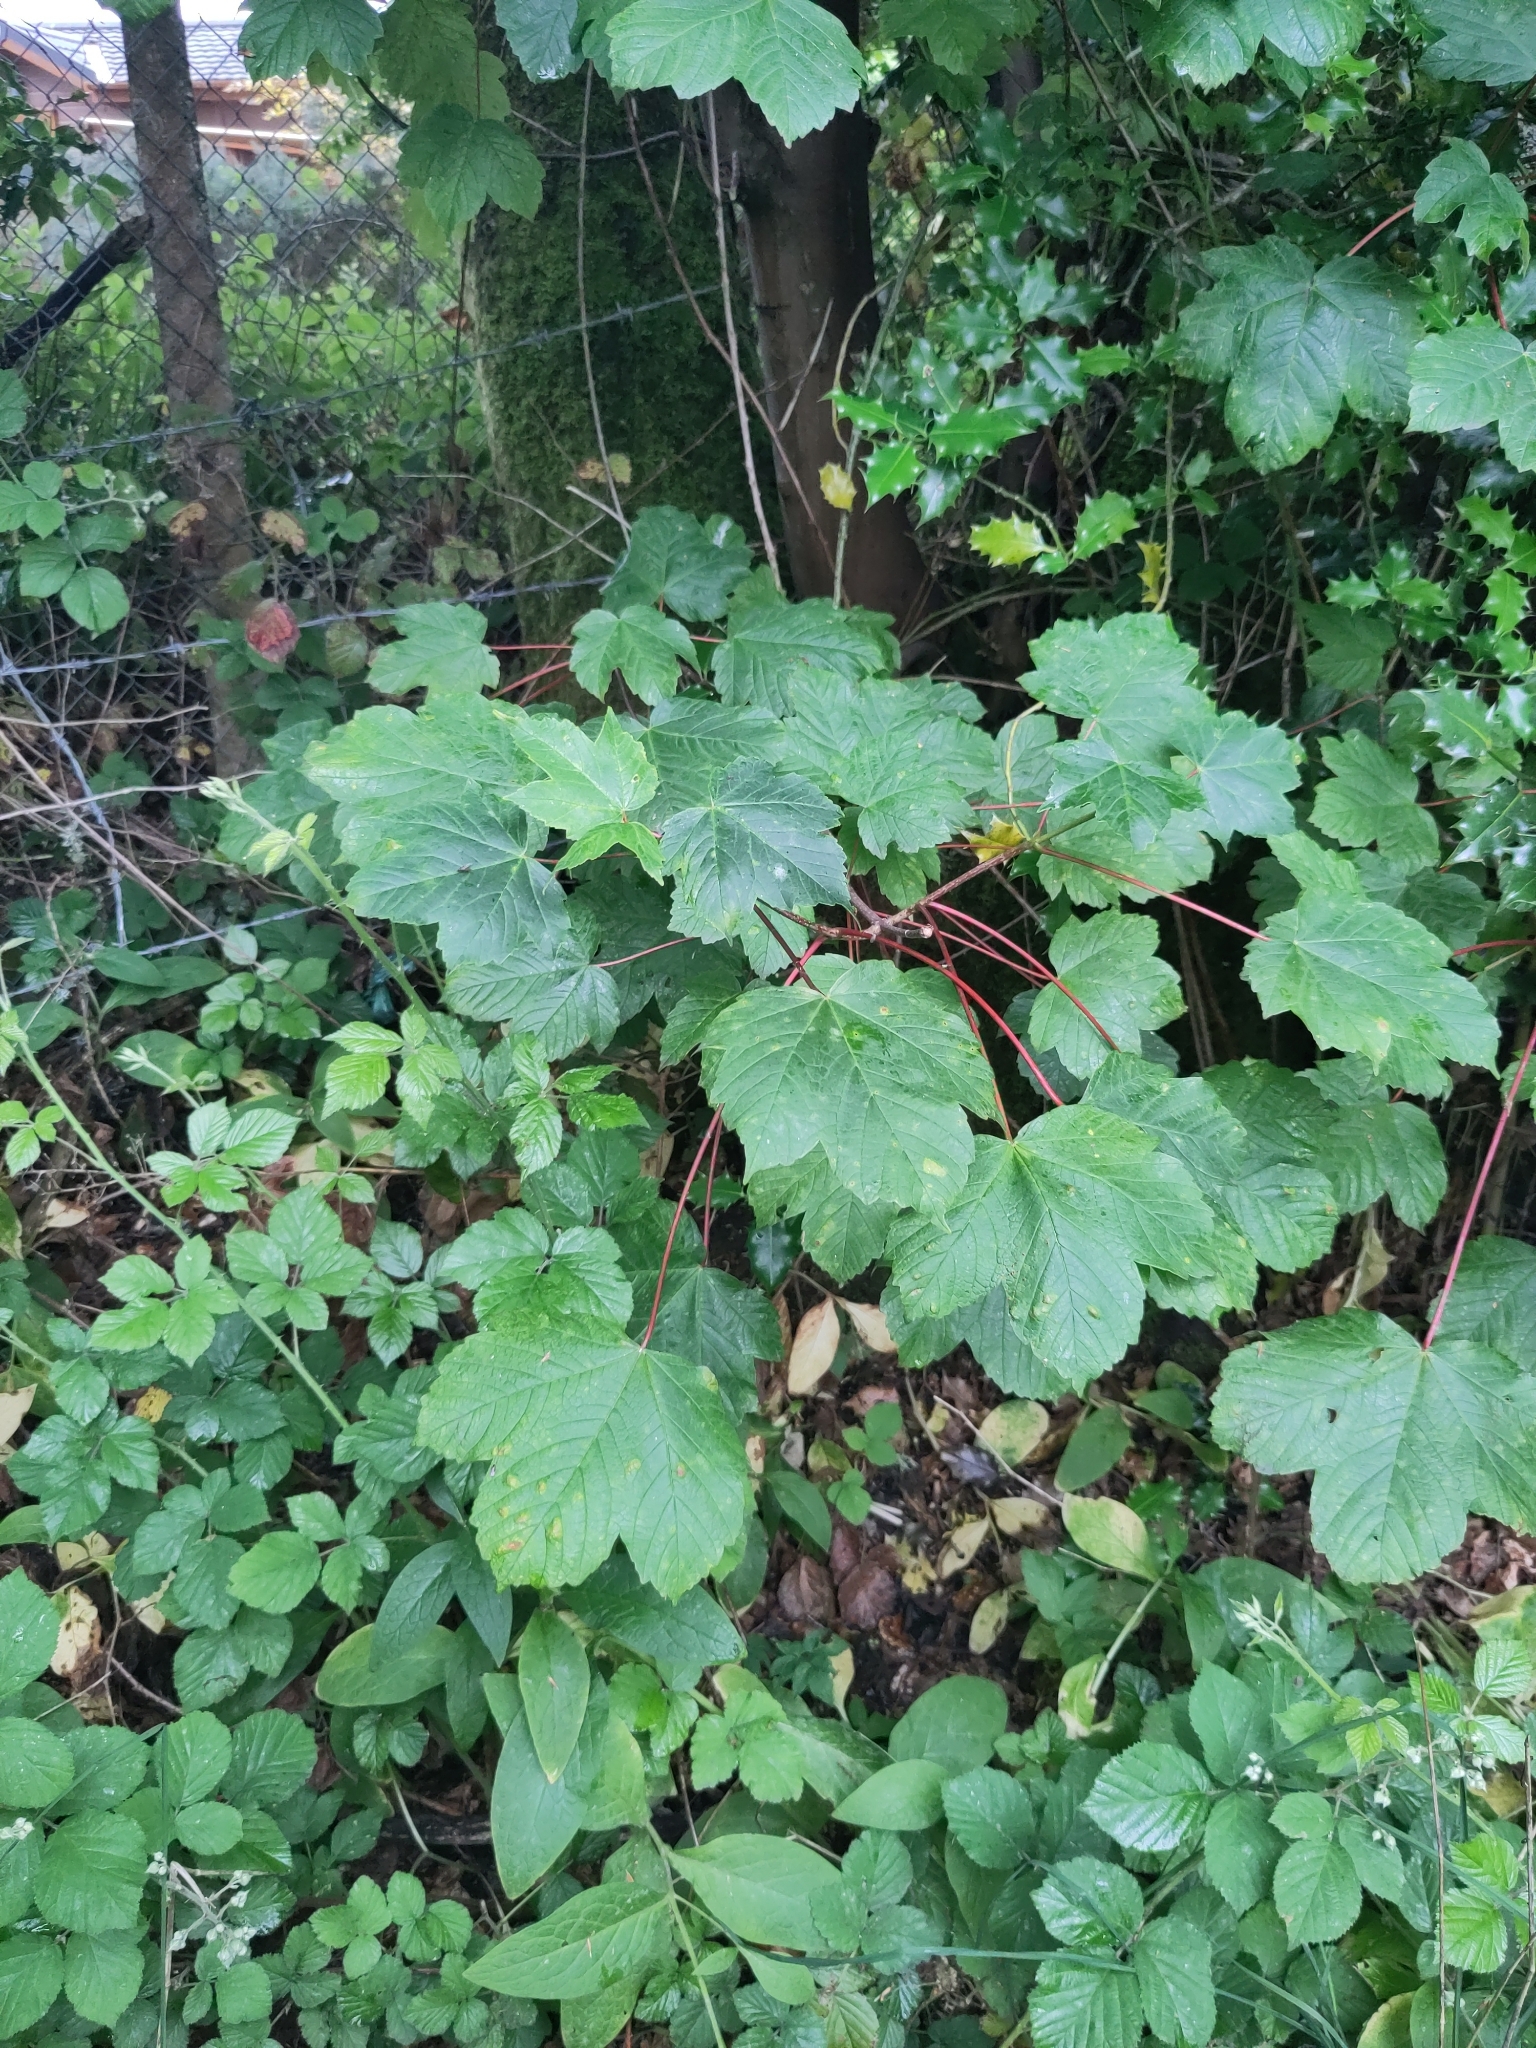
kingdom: Plantae
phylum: Tracheophyta
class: Magnoliopsida
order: Sapindales
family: Sapindaceae
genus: Acer
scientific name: Acer pseudoplatanus
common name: Sycamore
